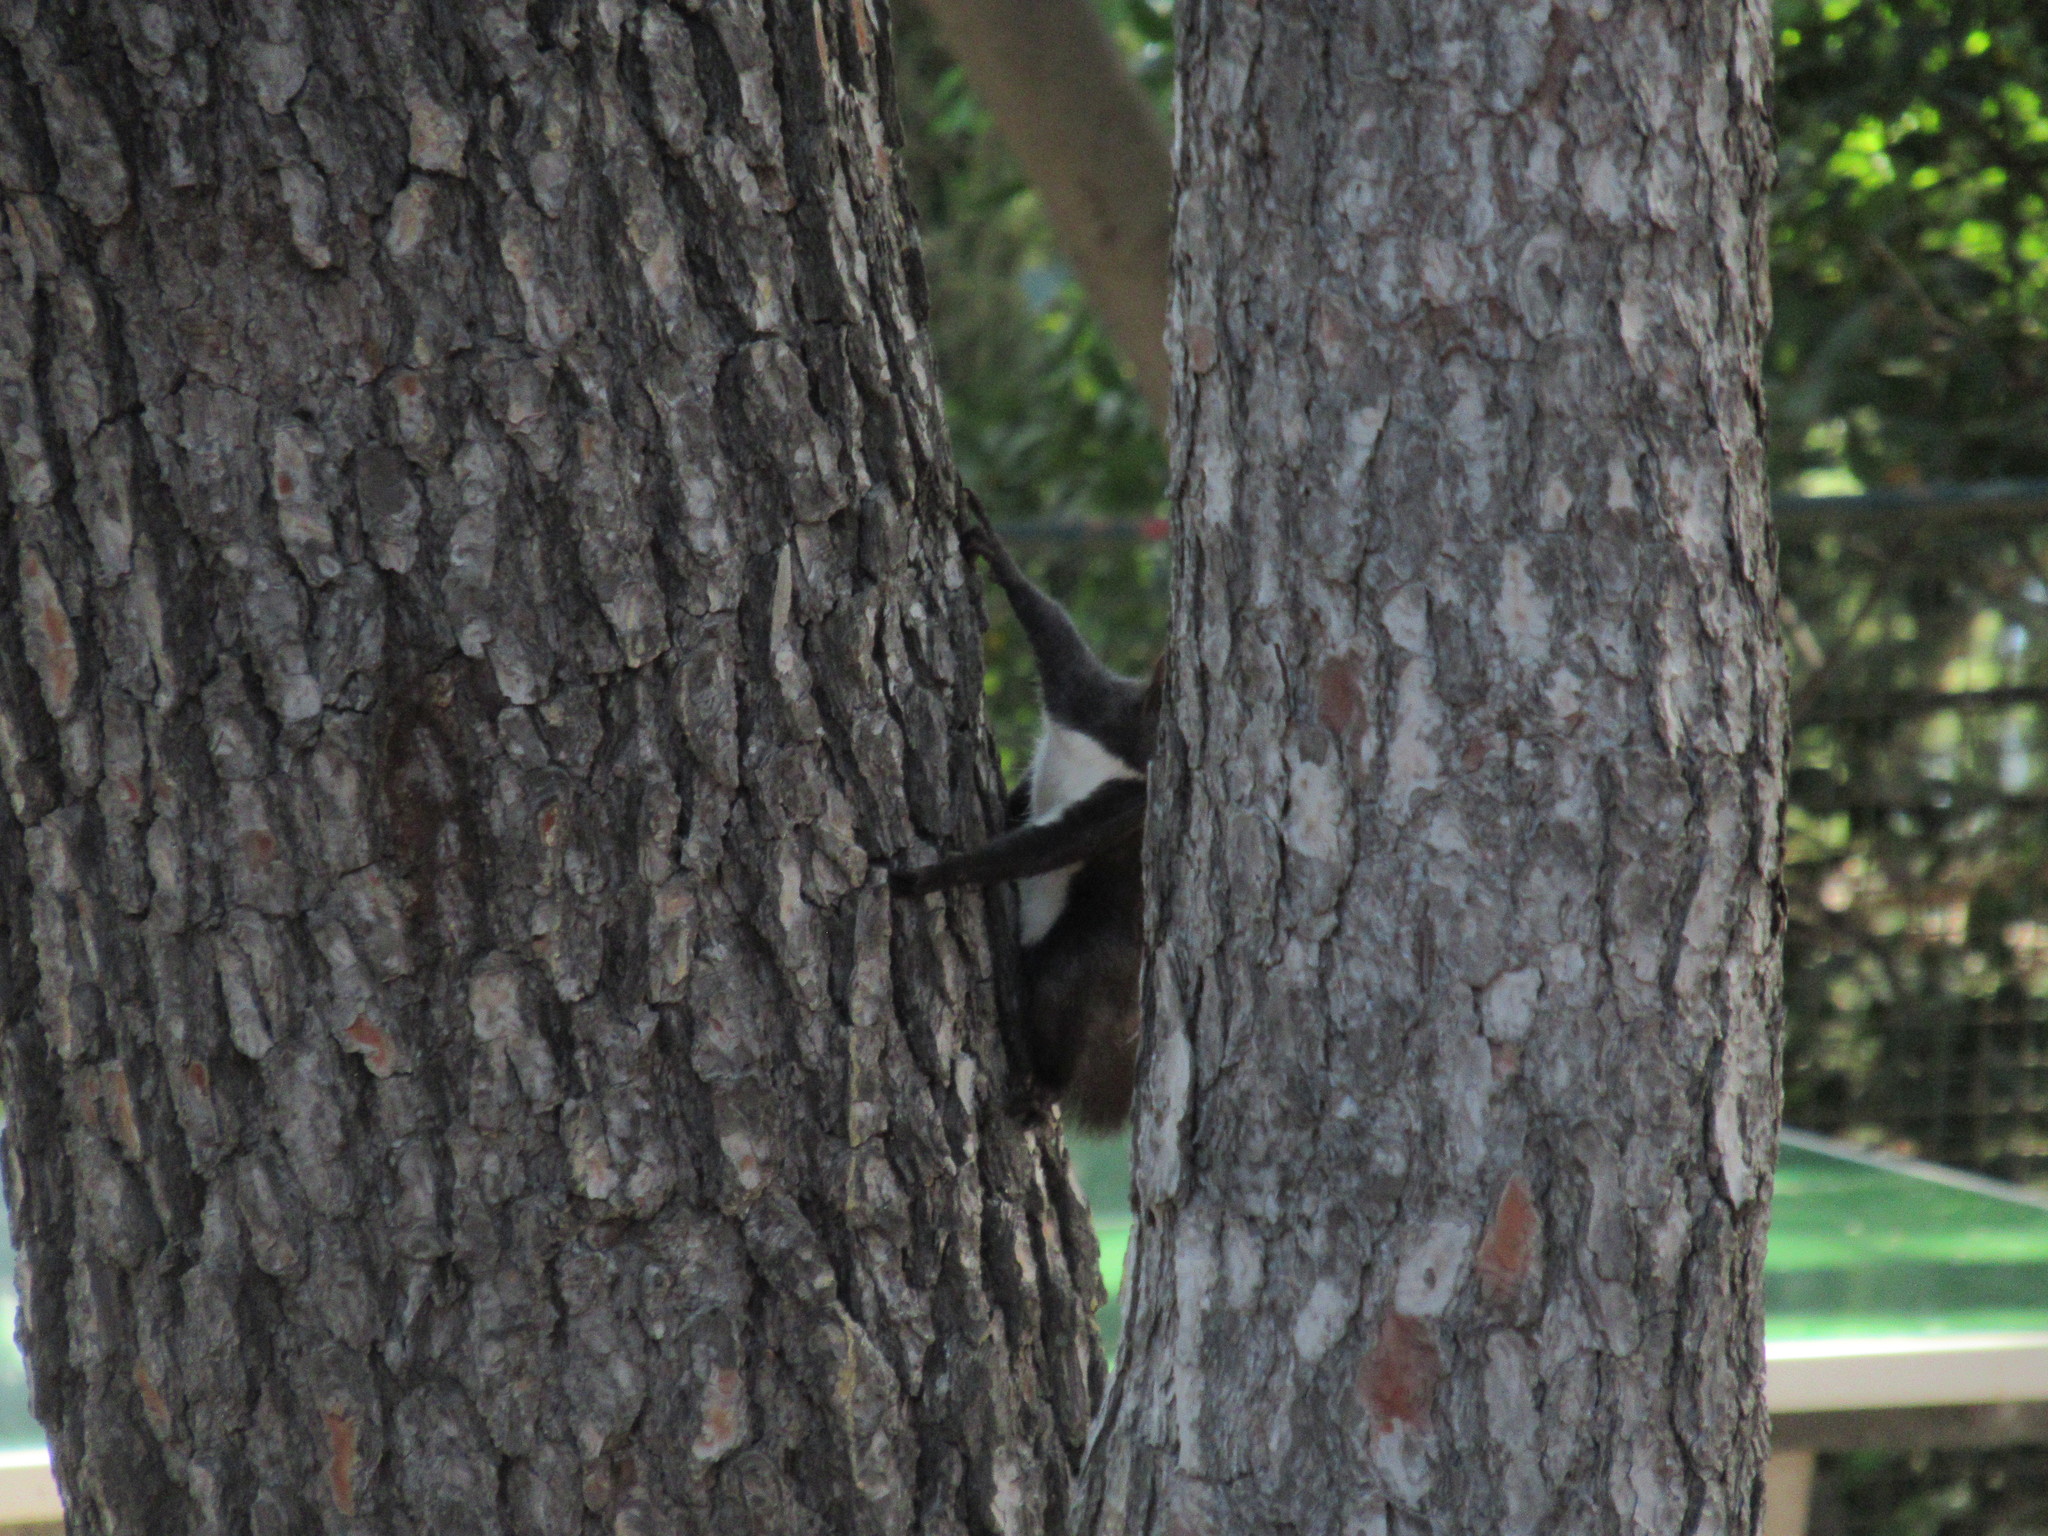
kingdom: Animalia
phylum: Chordata
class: Mammalia
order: Rodentia
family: Sciuridae
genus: Sciurus
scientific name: Sciurus vulgaris
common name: Eurasian red squirrel
